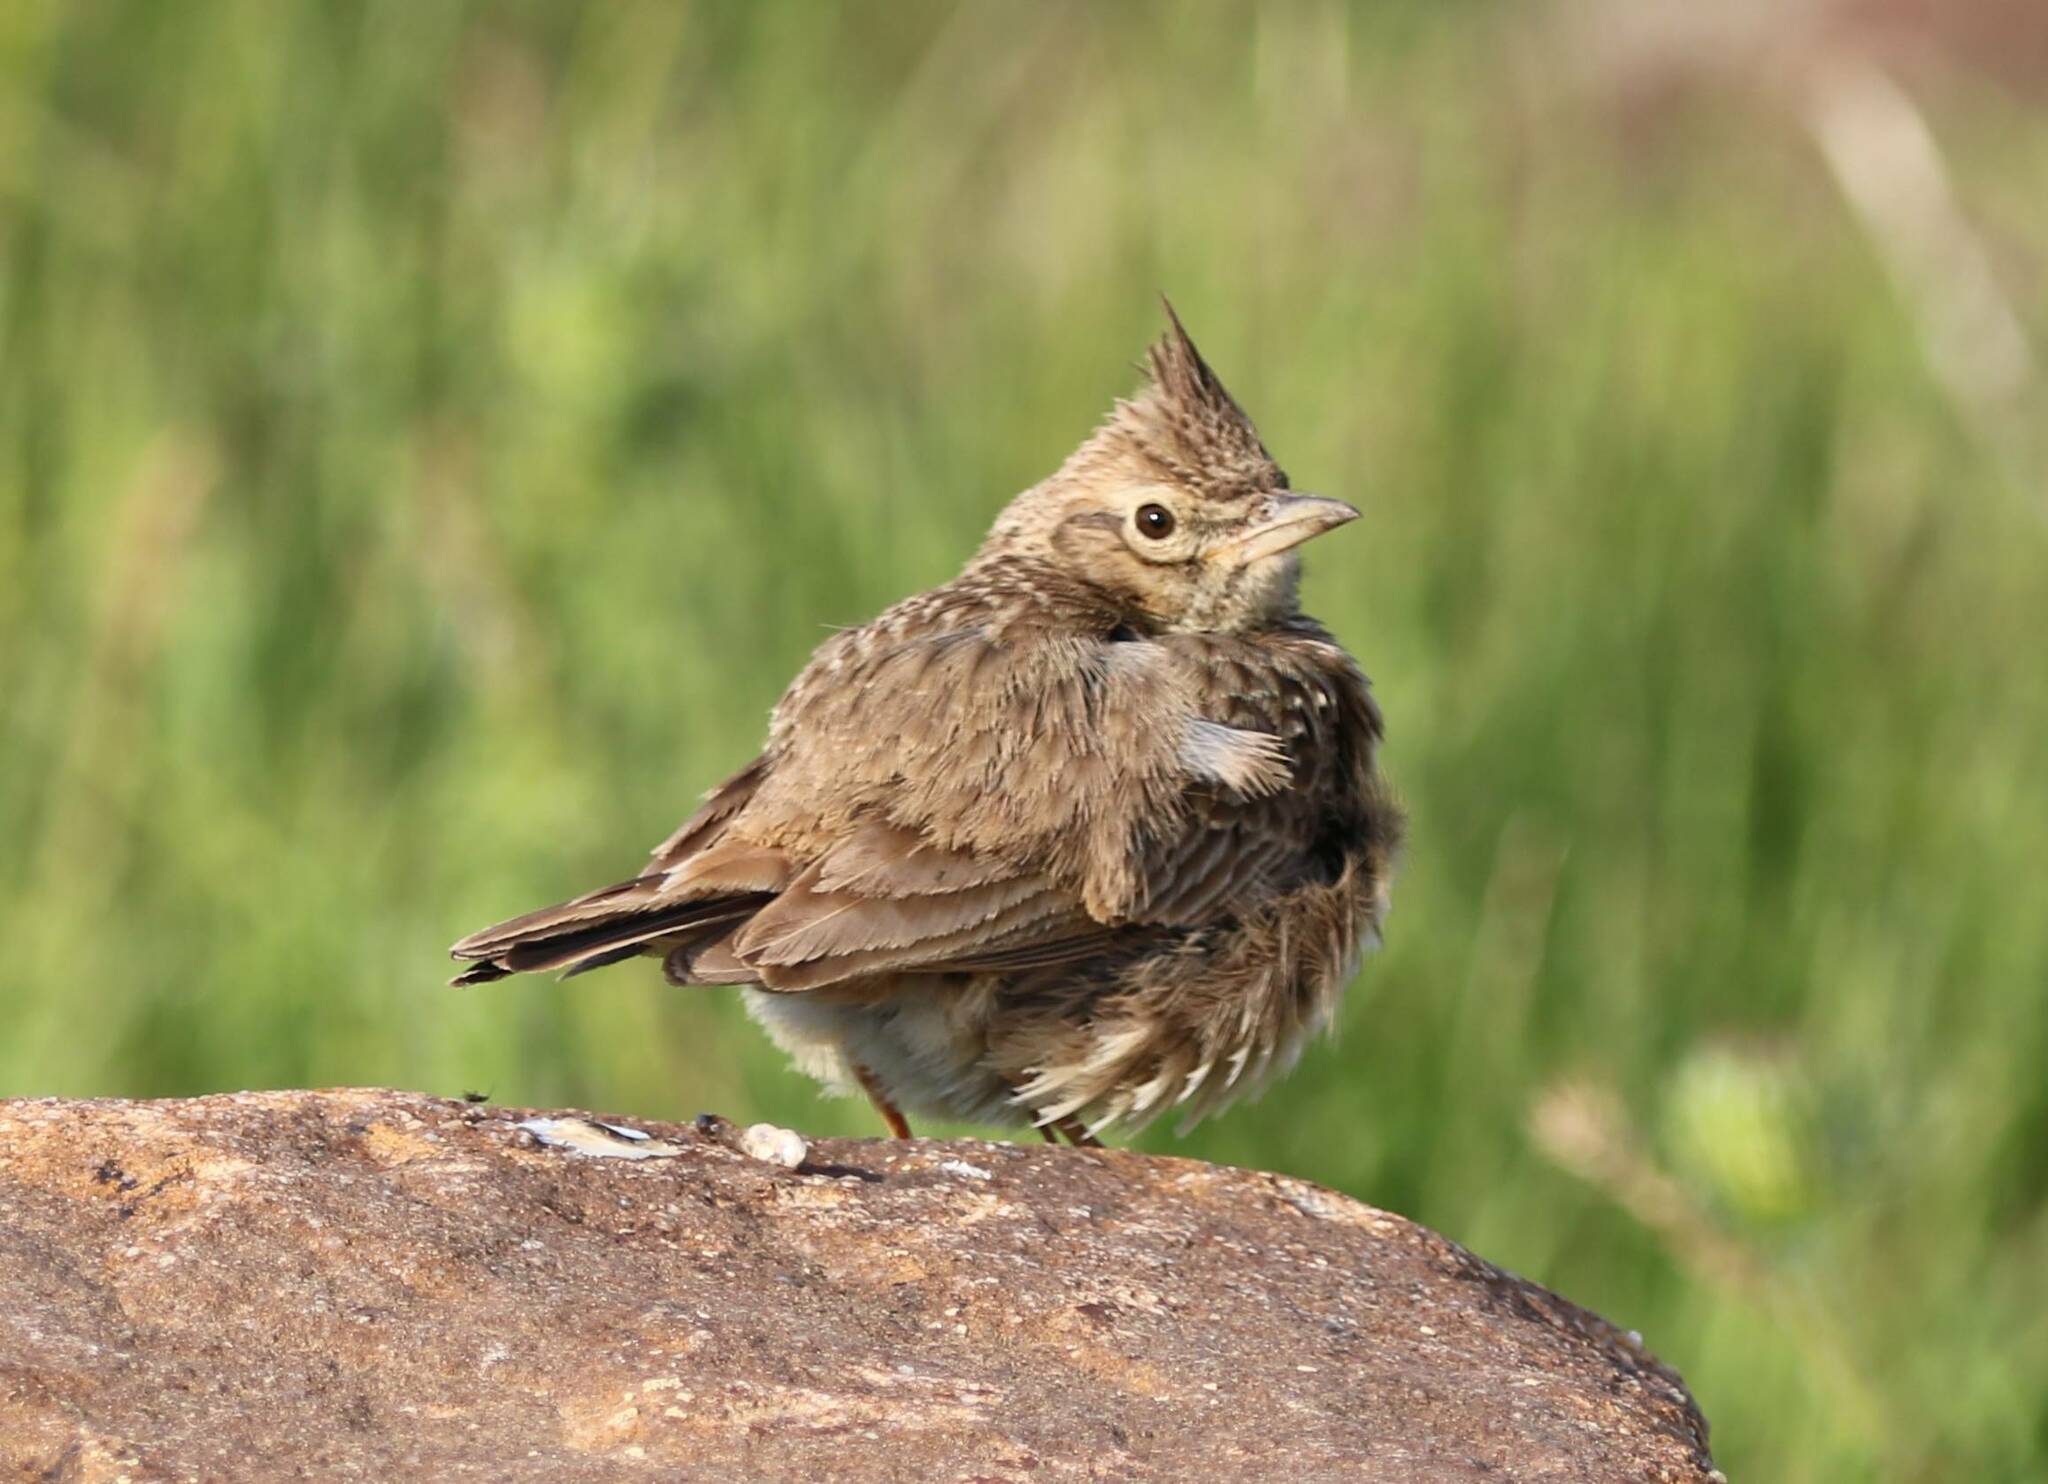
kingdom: Animalia
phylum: Chordata
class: Aves
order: Passeriformes
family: Alaudidae
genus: Galerida
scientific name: Galerida theklae
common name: Thekla lark
